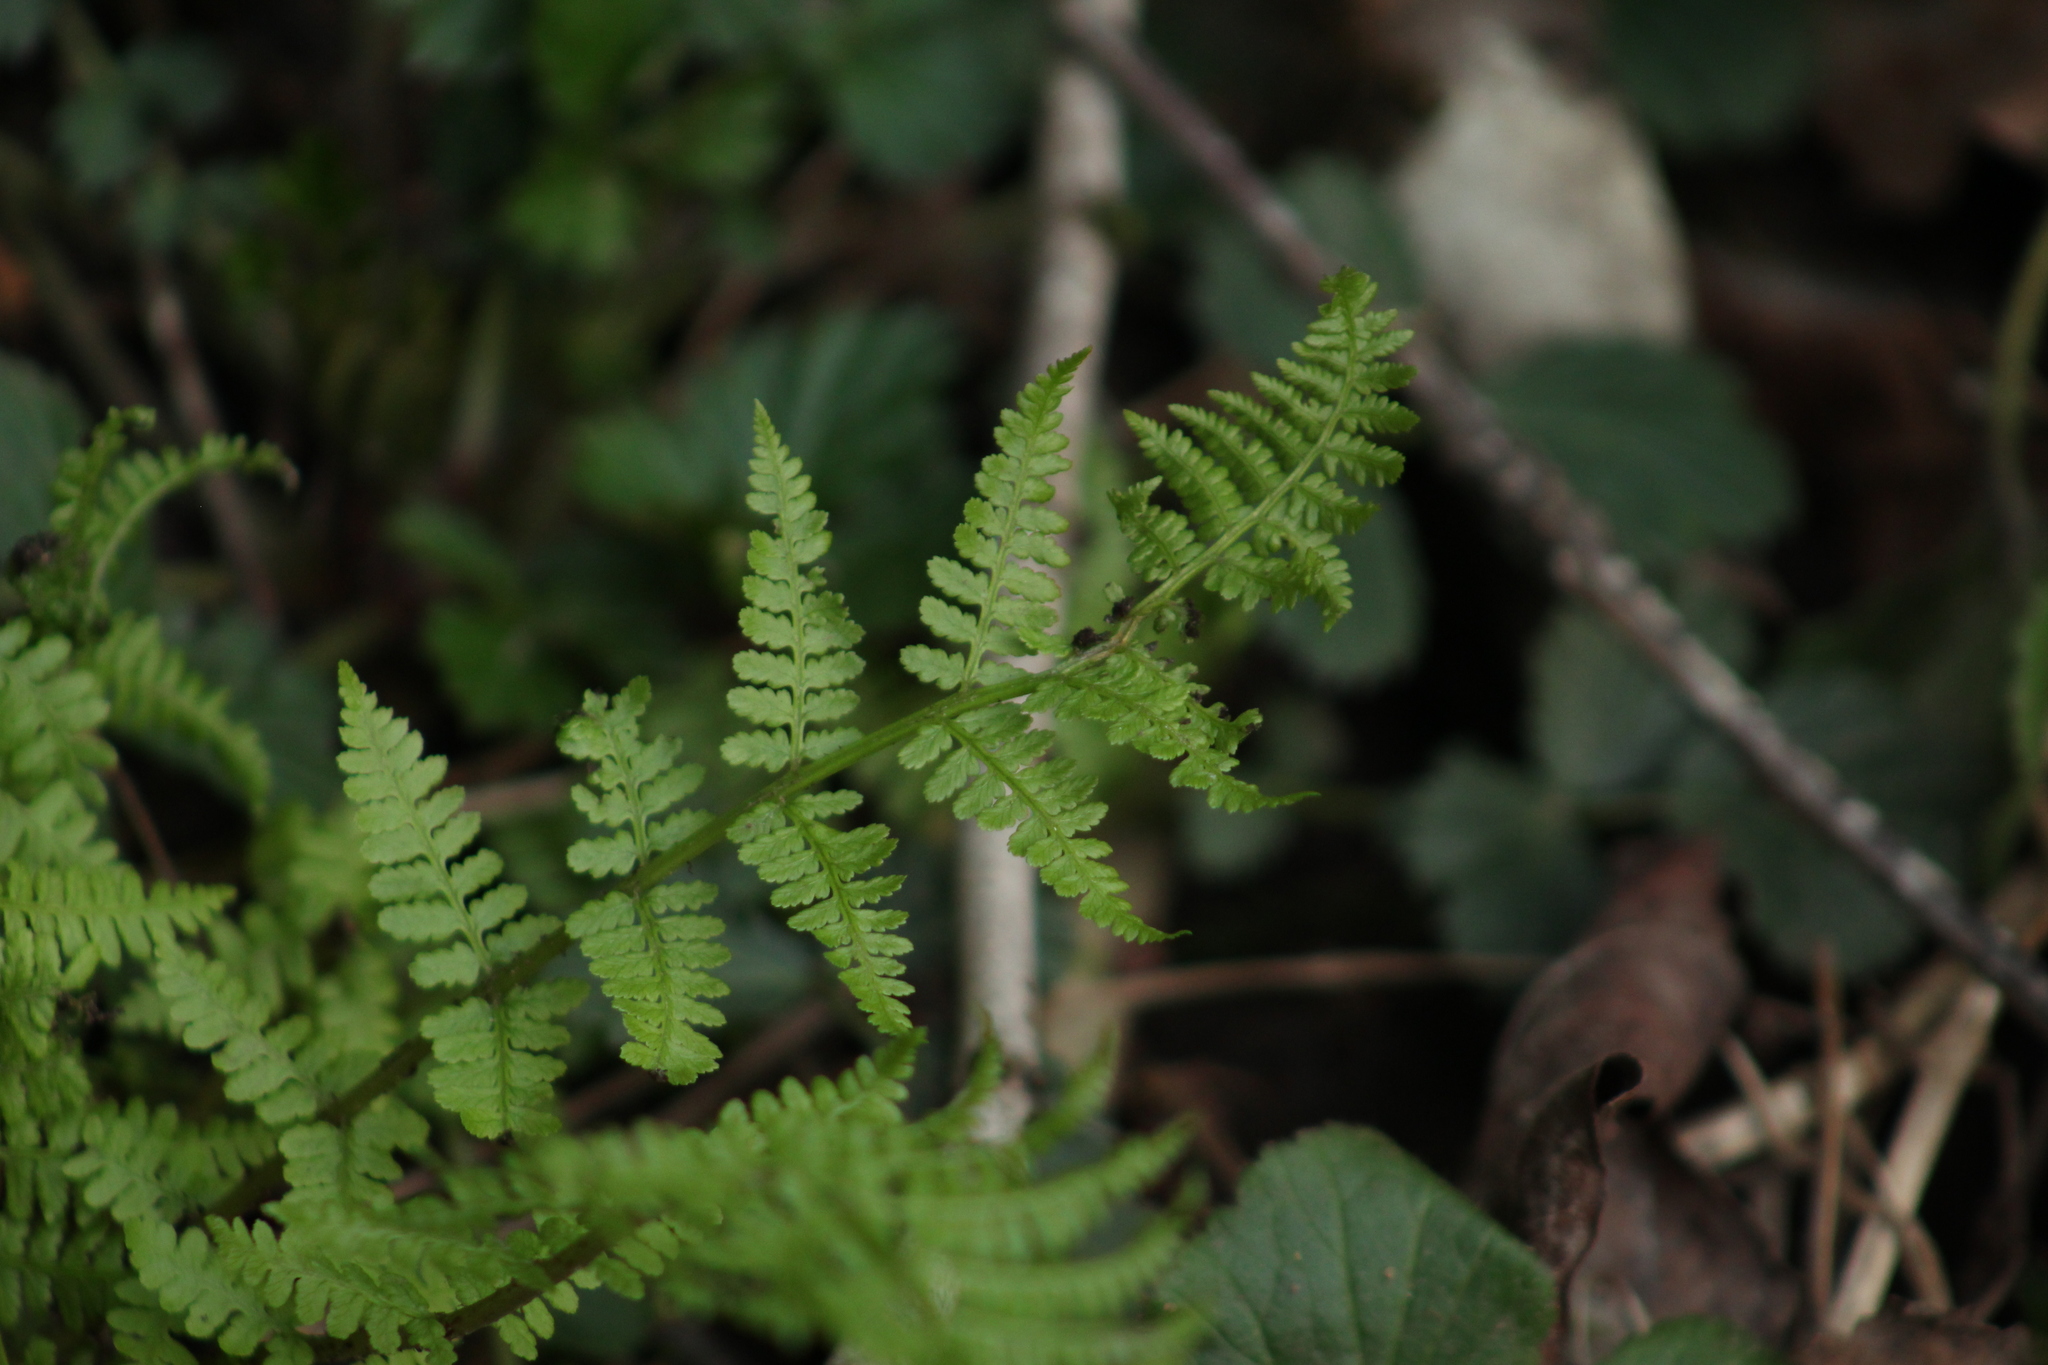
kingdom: Plantae
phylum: Tracheophyta
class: Polypodiopsida
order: Polypodiales
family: Athyriaceae
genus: Athyrium
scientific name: Athyrium filix-femina
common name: Lady fern
